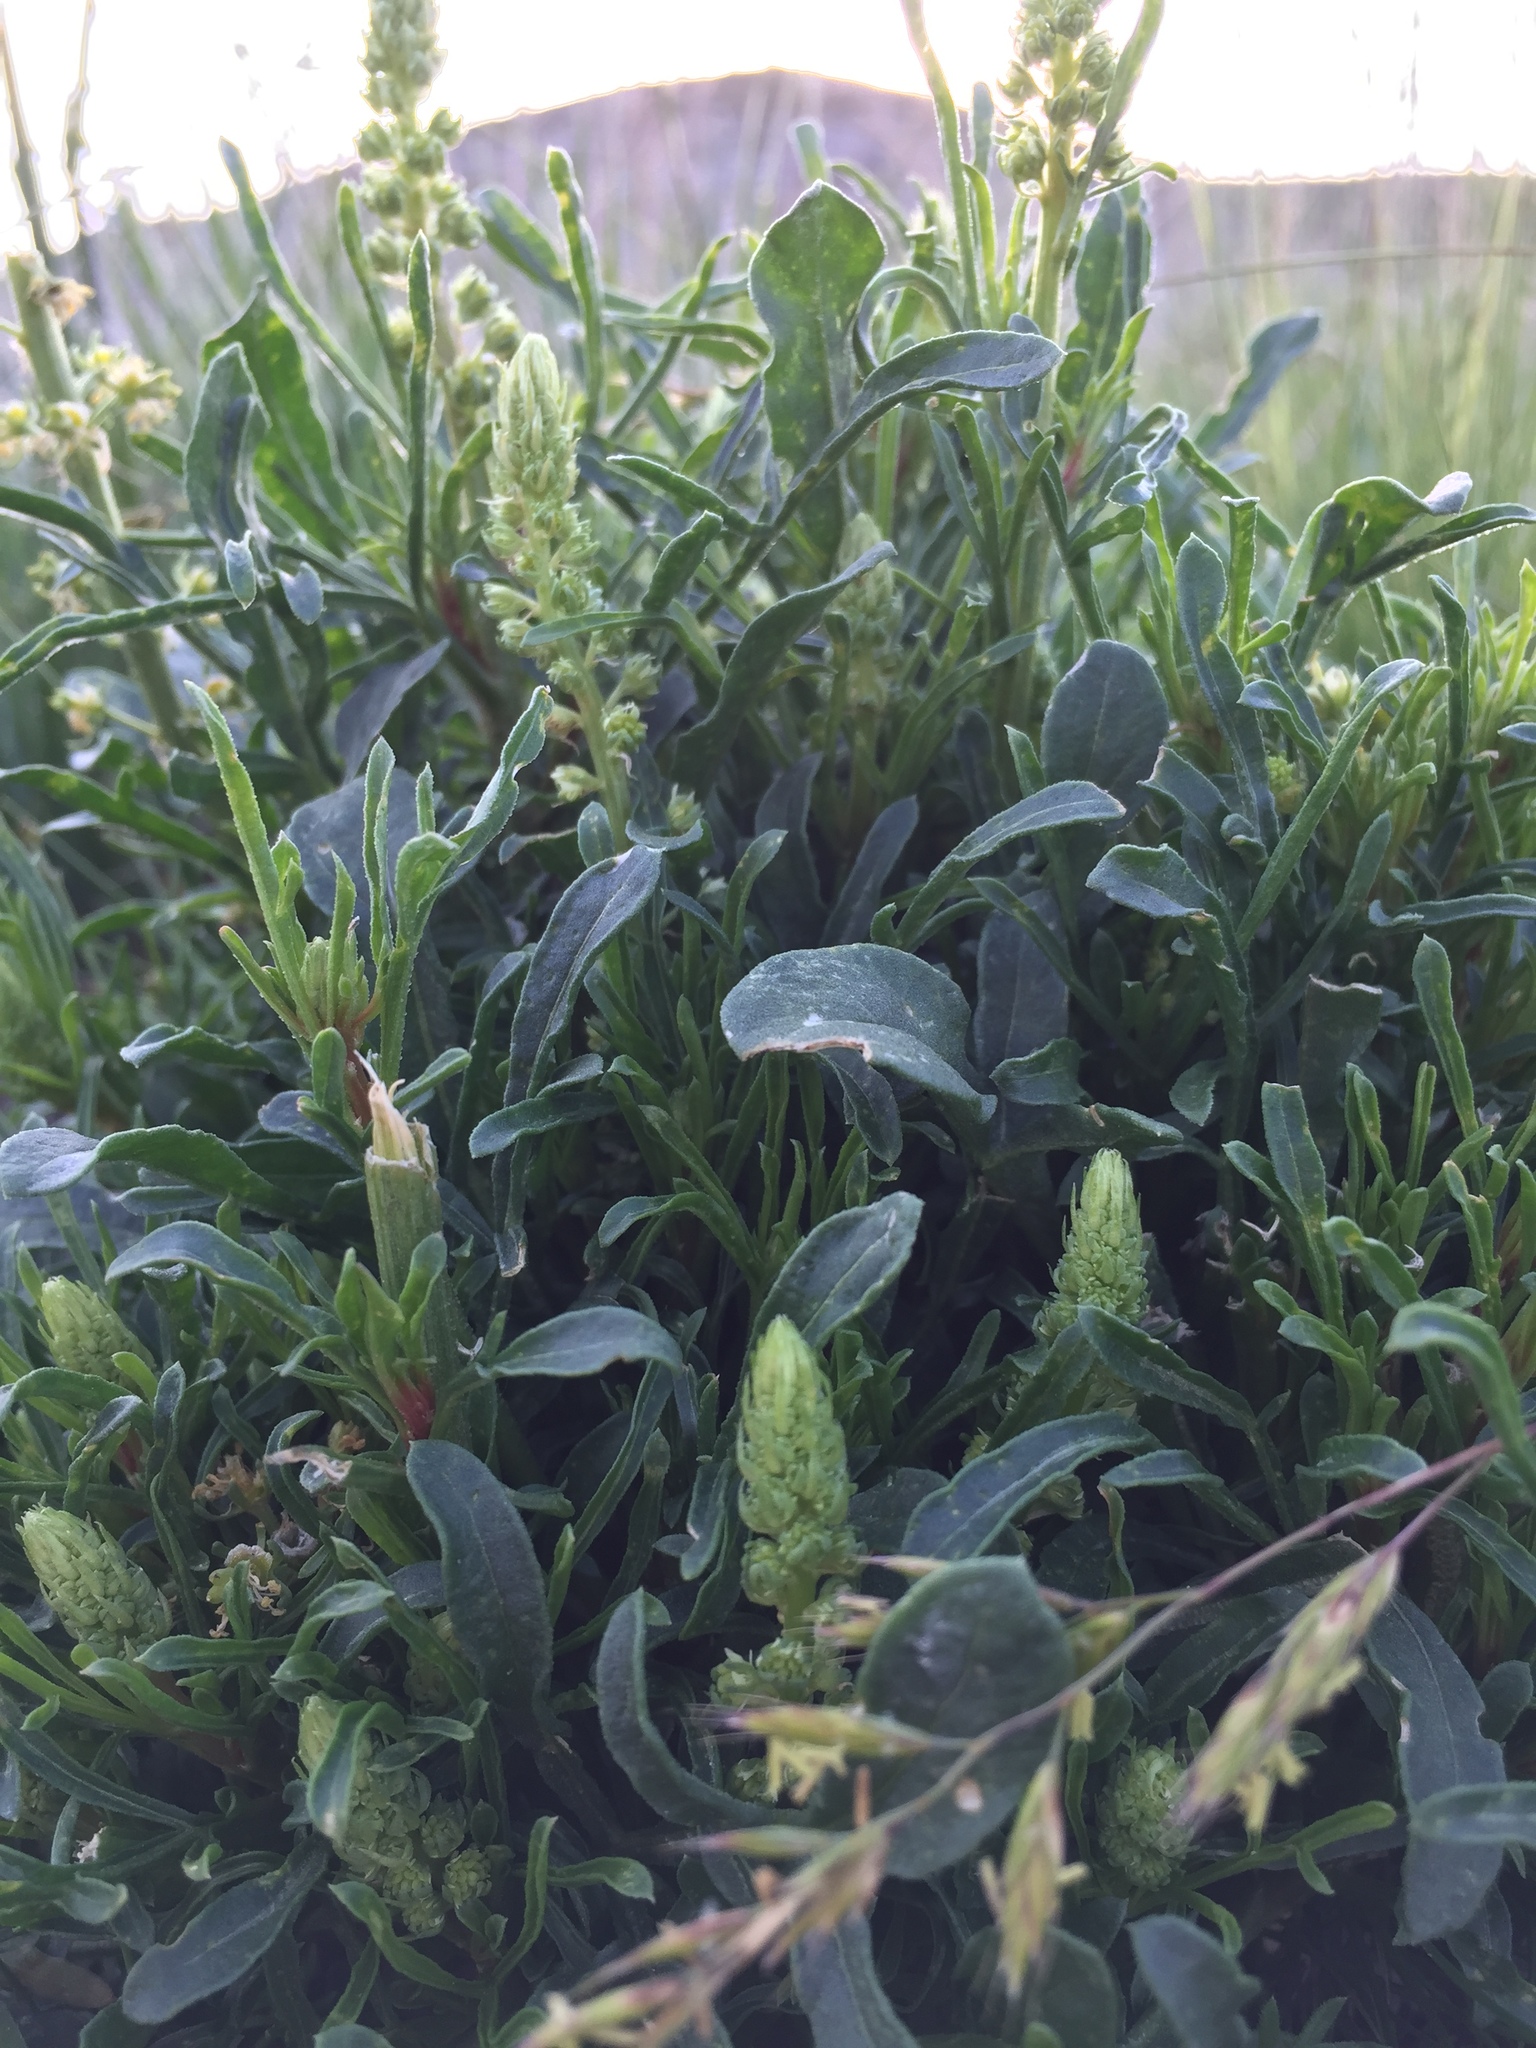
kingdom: Plantae
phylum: Tracheophyta
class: Magnoliopsida
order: Brassicales
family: Resedaceae
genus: Reseda
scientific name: Reseda lutea
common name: Wild mignonette
